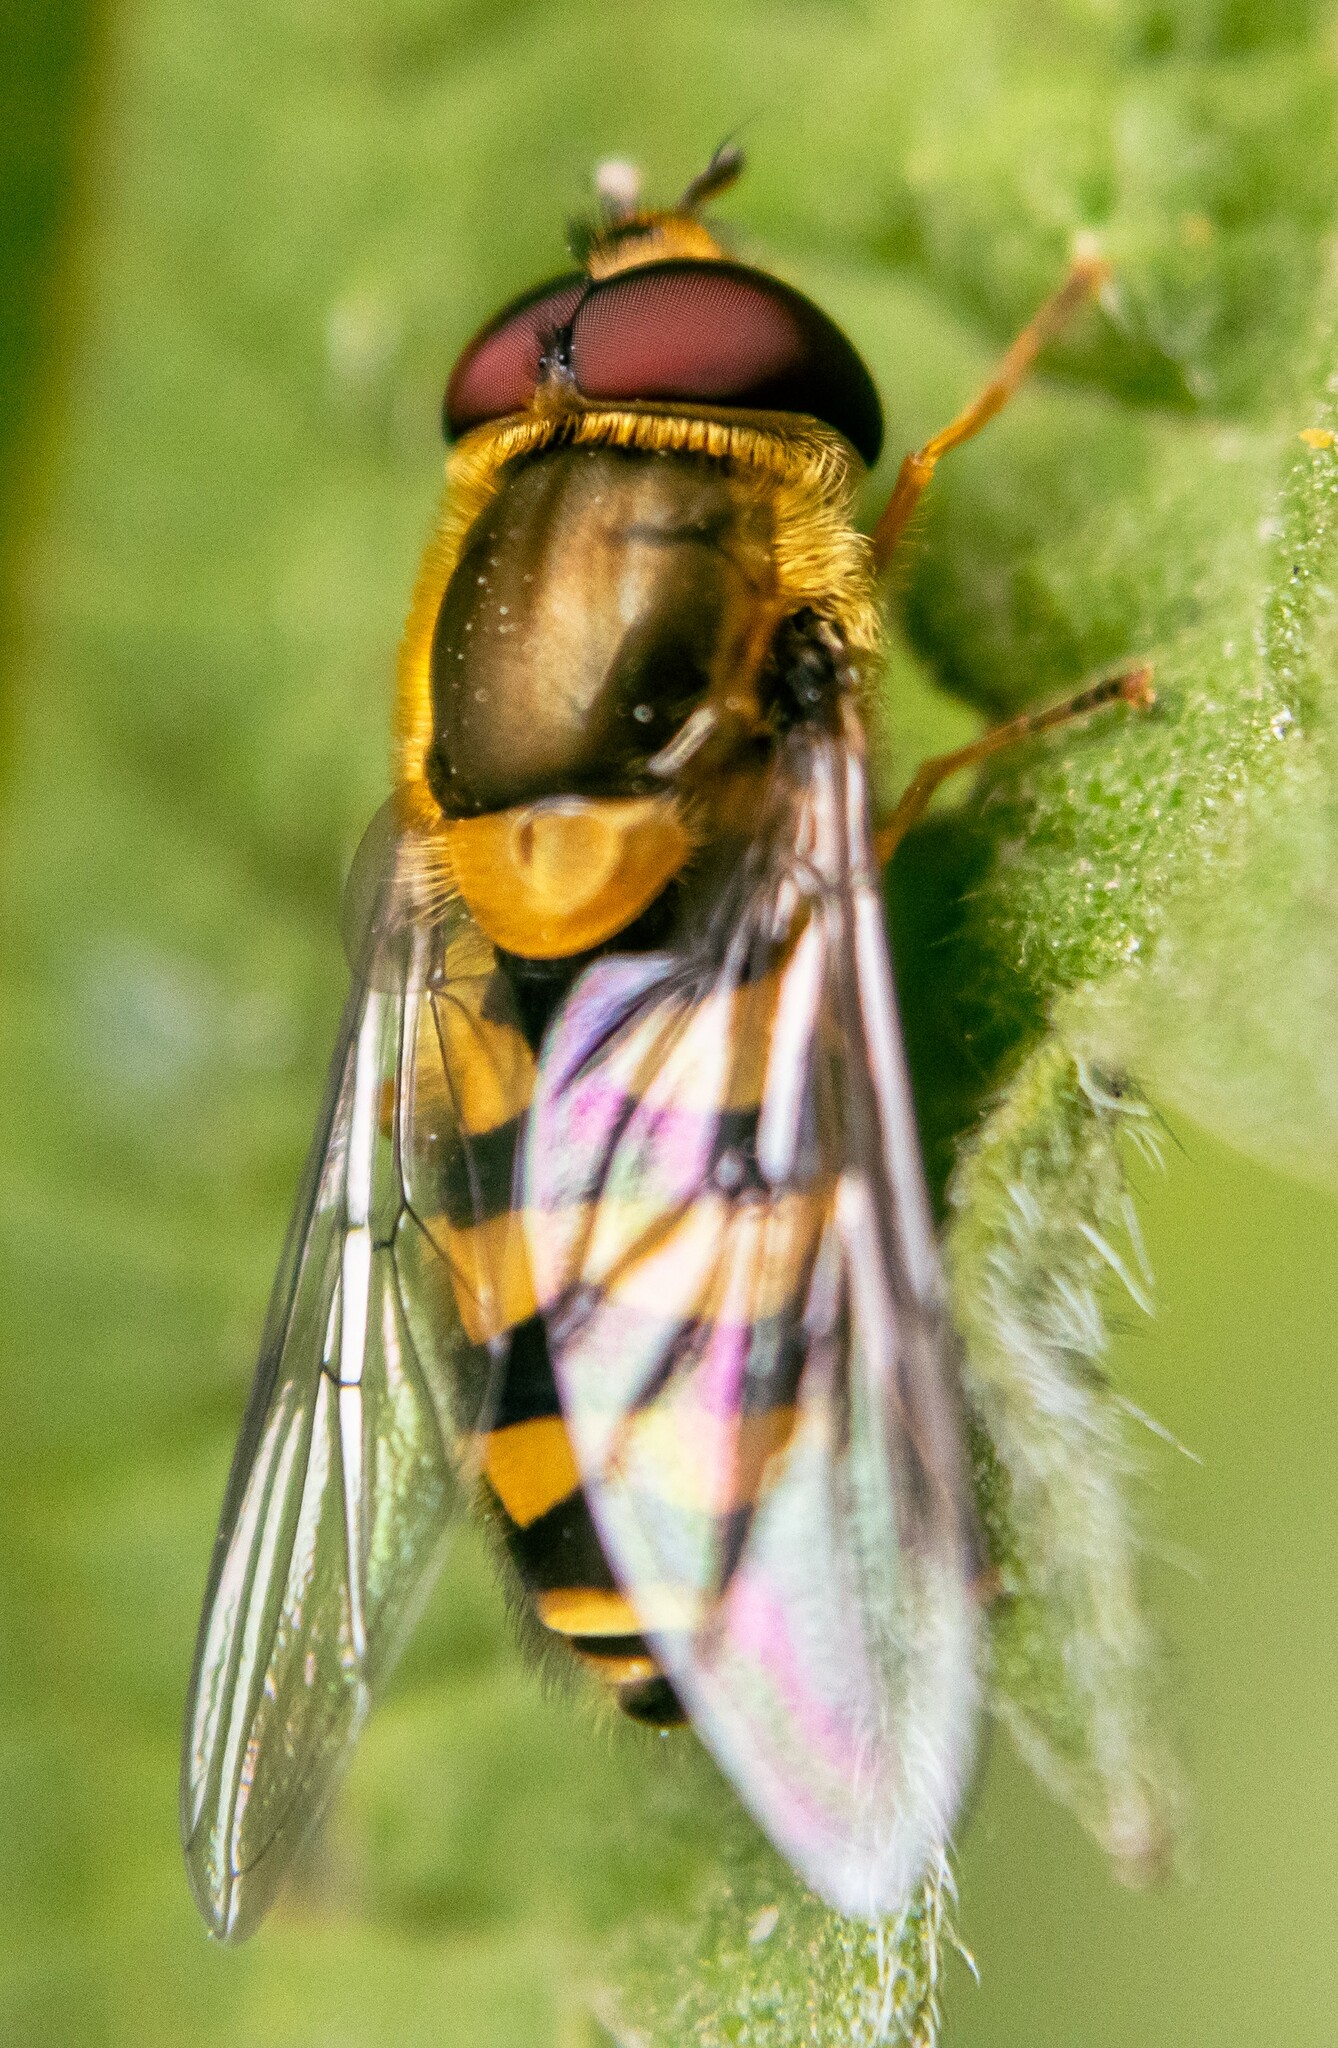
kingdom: Animalia
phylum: Arthropoda
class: Insecta
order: Diptera
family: Syrphidae
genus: Syrphus
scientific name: Syrphus
